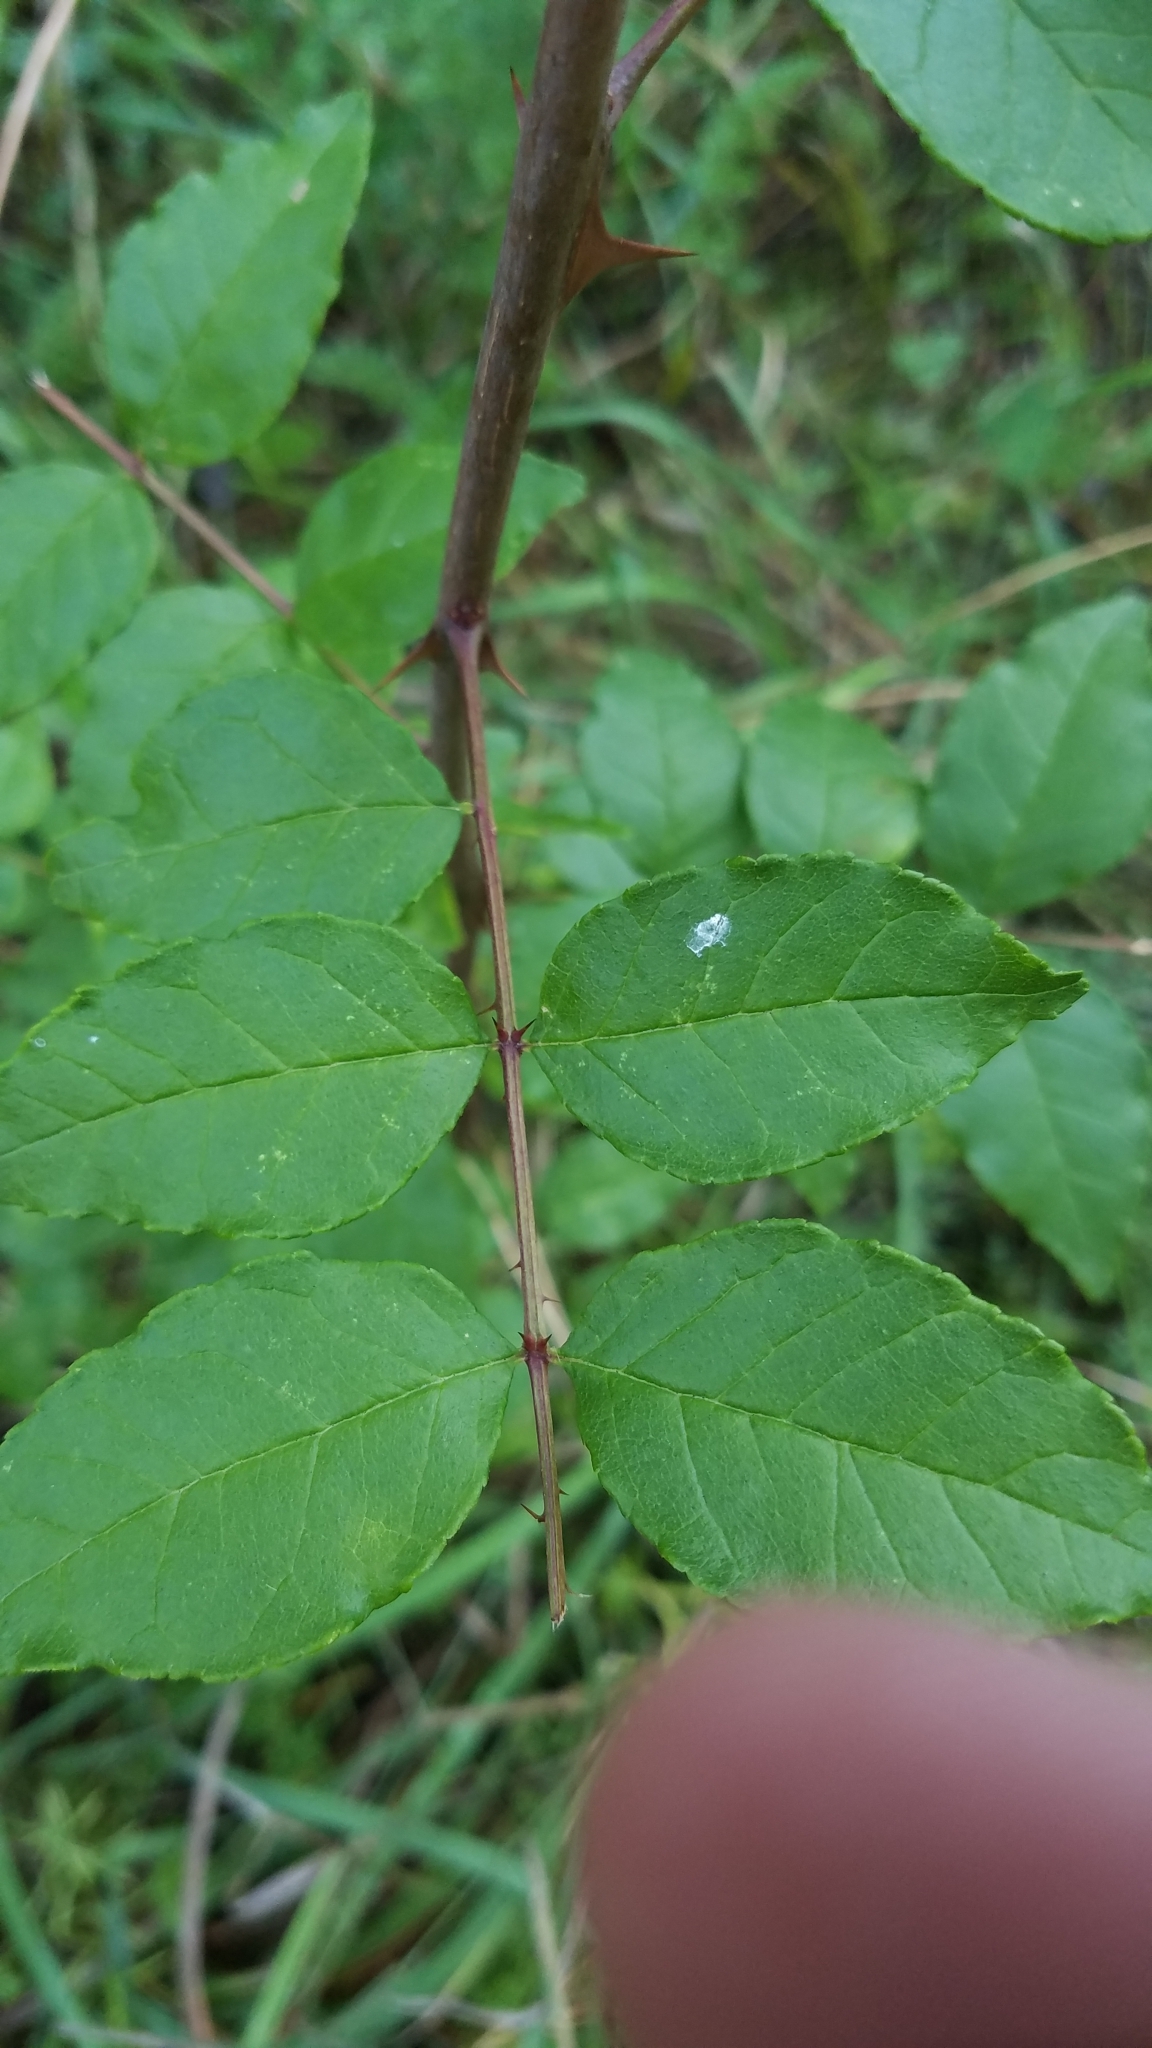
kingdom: Plantae
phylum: Tracheophyta
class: Magnoliopsida
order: Sapindales
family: Rutaceae
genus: Zanthoxylum
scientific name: Zanthoxylum americanum
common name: Northern prickly-ash
